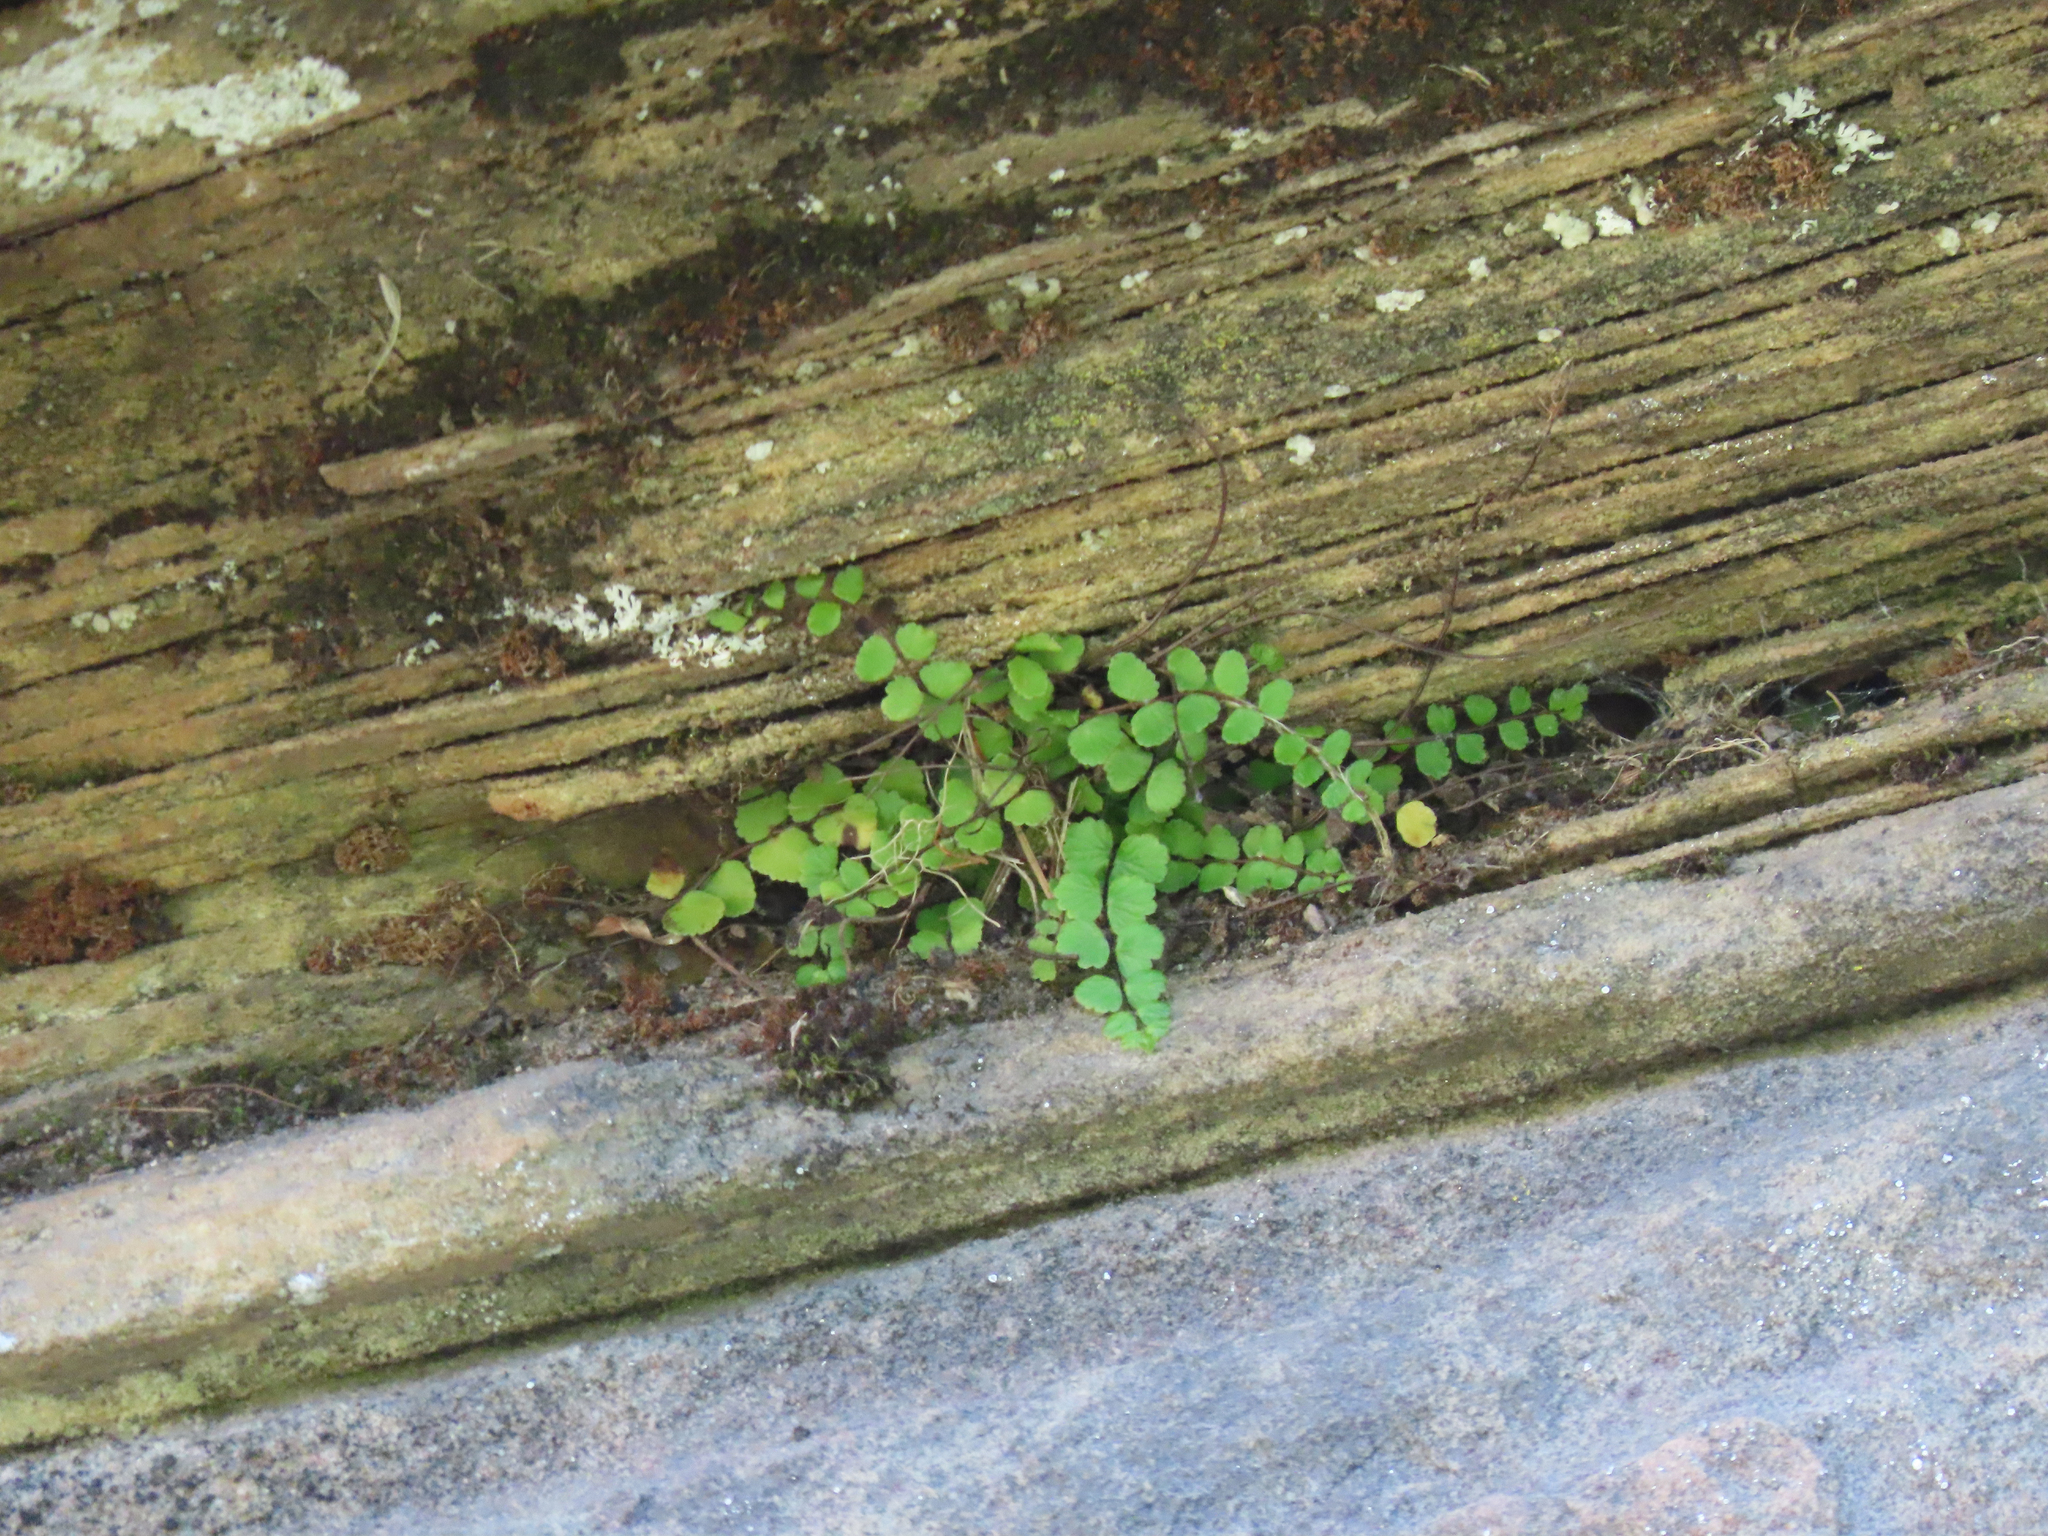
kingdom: Plantae
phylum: Tracheophyta
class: Polypodiopsida
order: Polypodiales
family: Aspleniaceae
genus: Asplenium
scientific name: Asplenium trichomanes
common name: Maidenhair spleenwort
